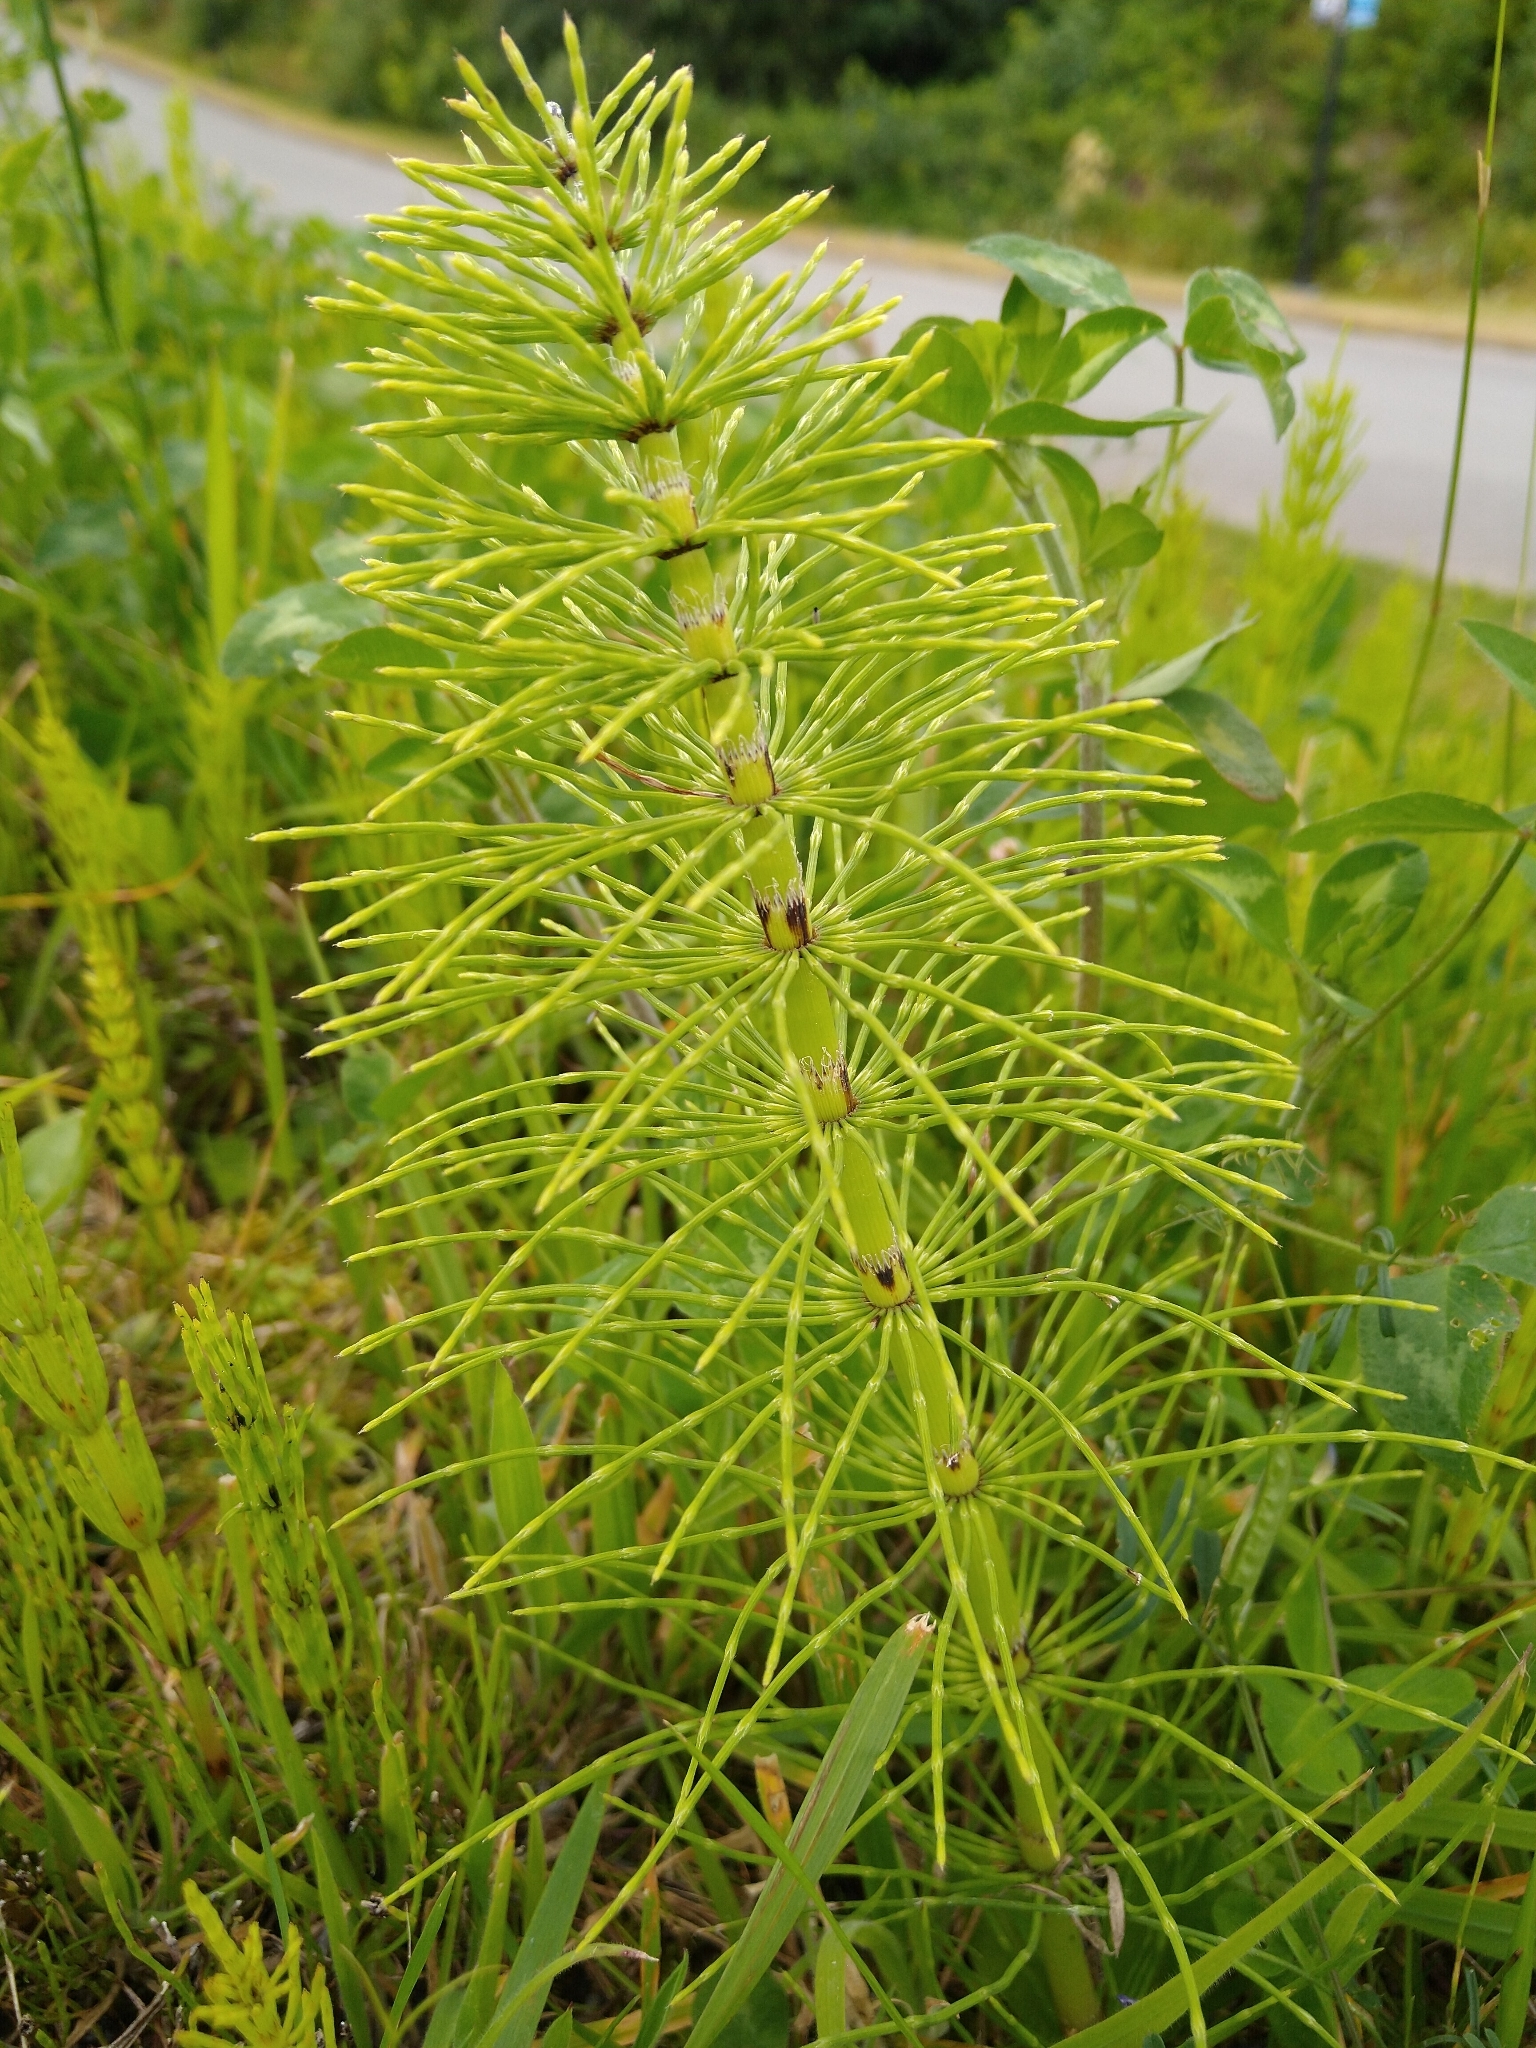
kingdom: Plantae
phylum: Tracheophyta
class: Polypodiopsida
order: Equisetales
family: Equisetaceae
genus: Equisetum
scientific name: Equisetum telmateia
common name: Great horsetail
